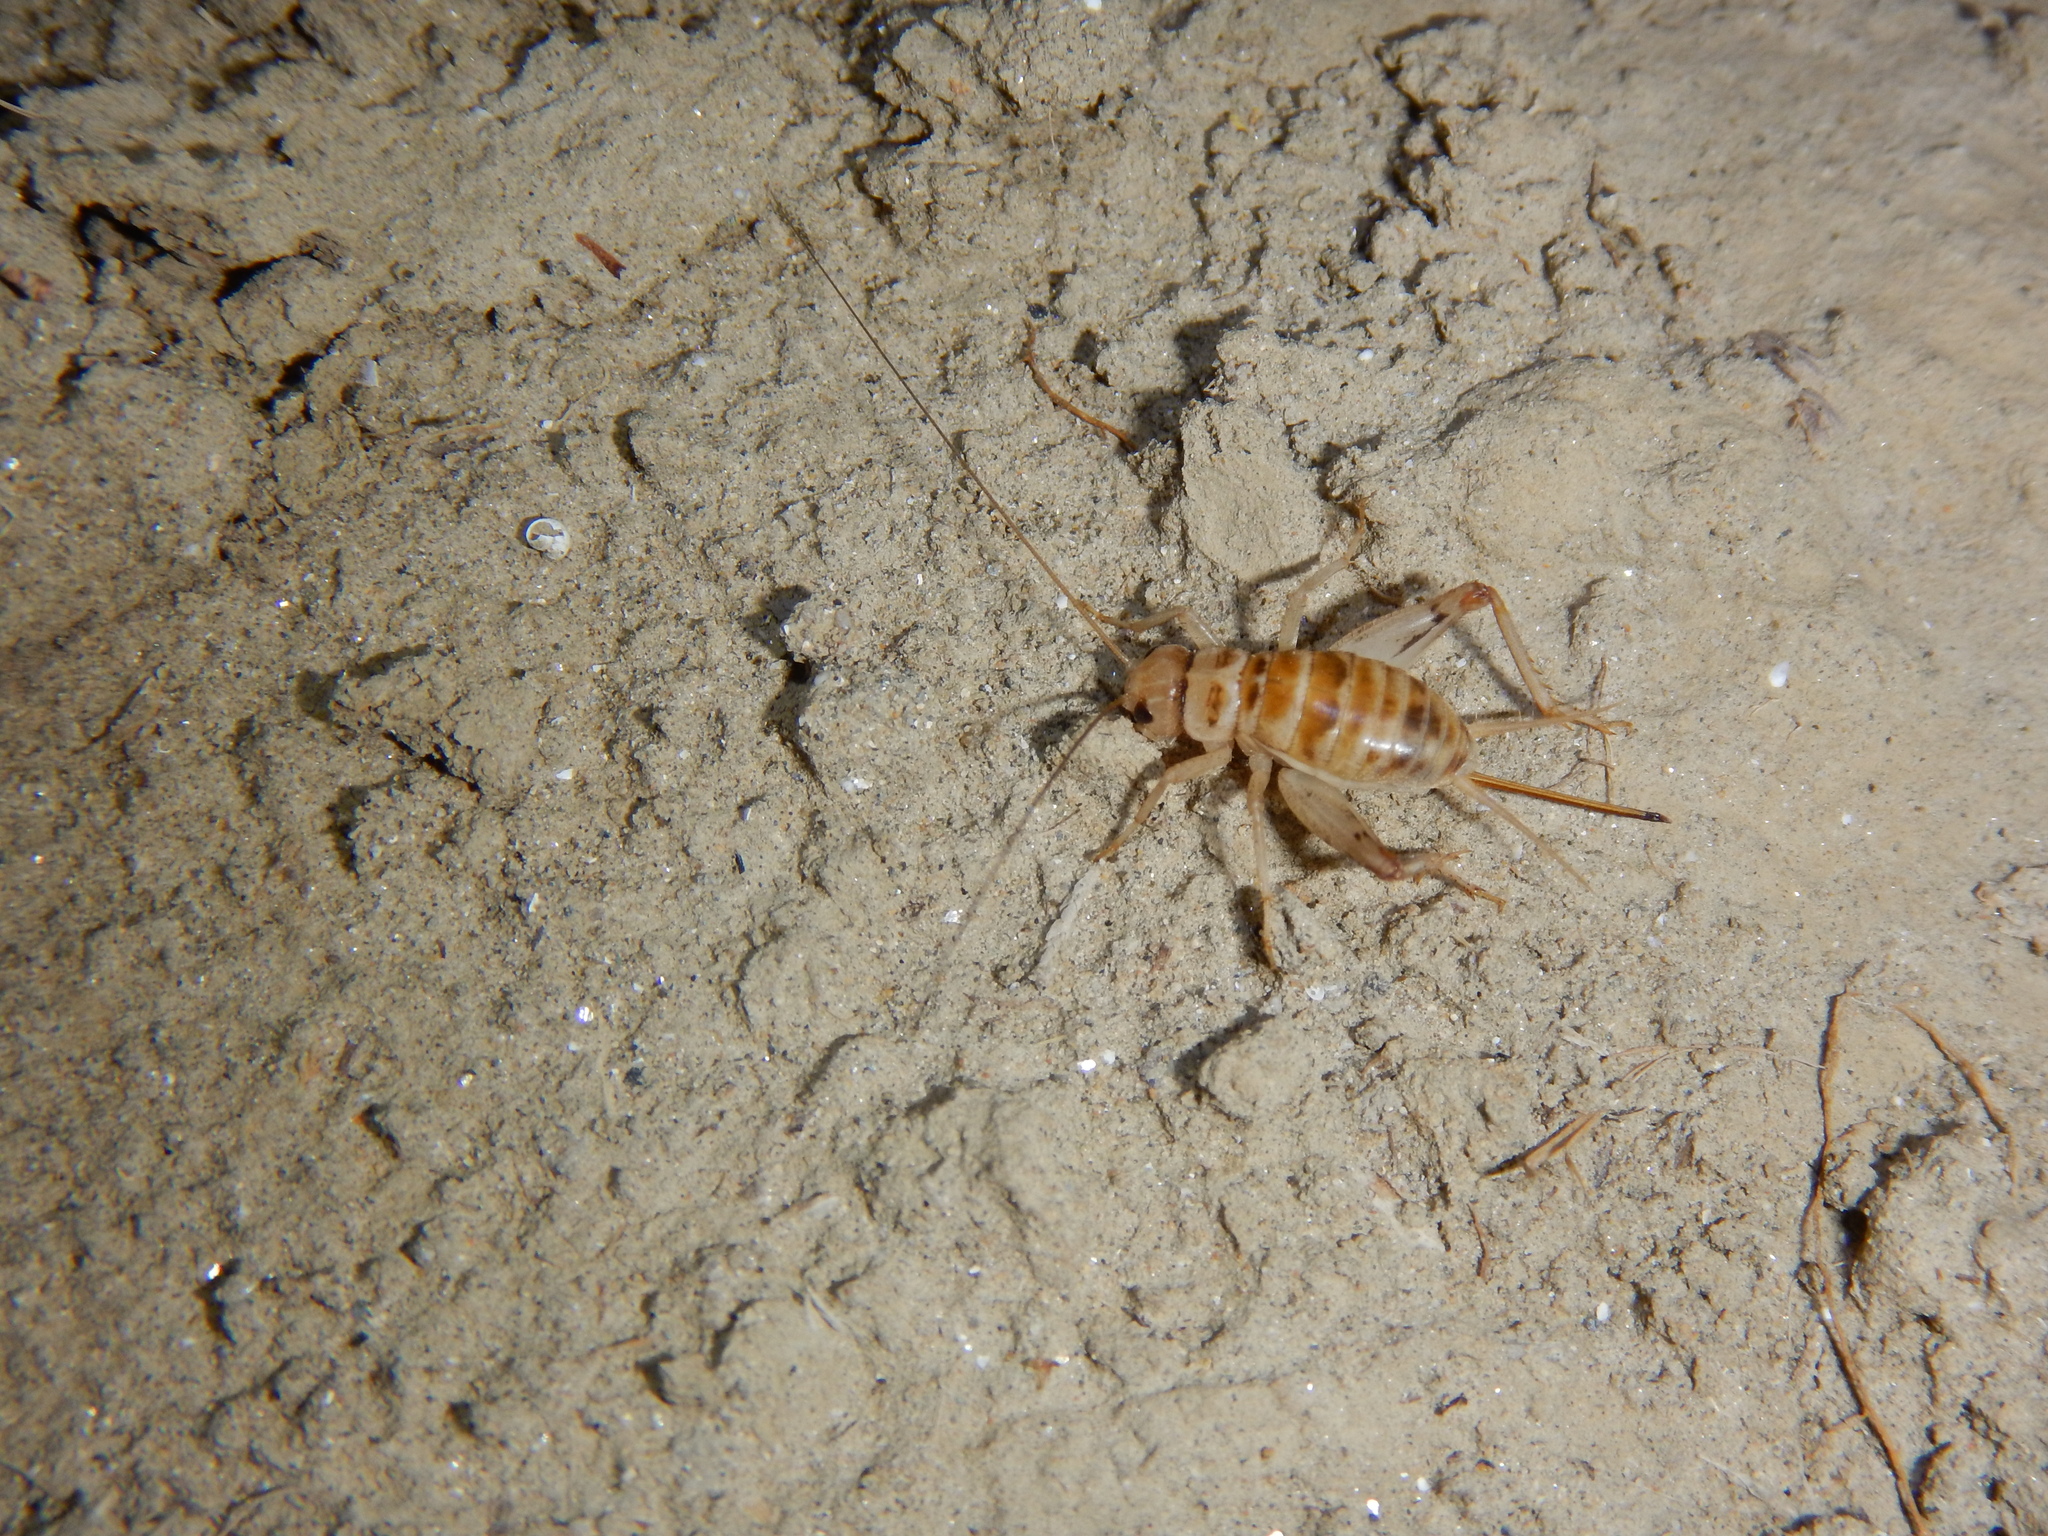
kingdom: Animalia
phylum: Arthropoda
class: Insecta
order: Orthoptera
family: Gryllidae
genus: Gryllomorpha
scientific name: Gryllomorpha uclensis
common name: Western crevice-cricket
